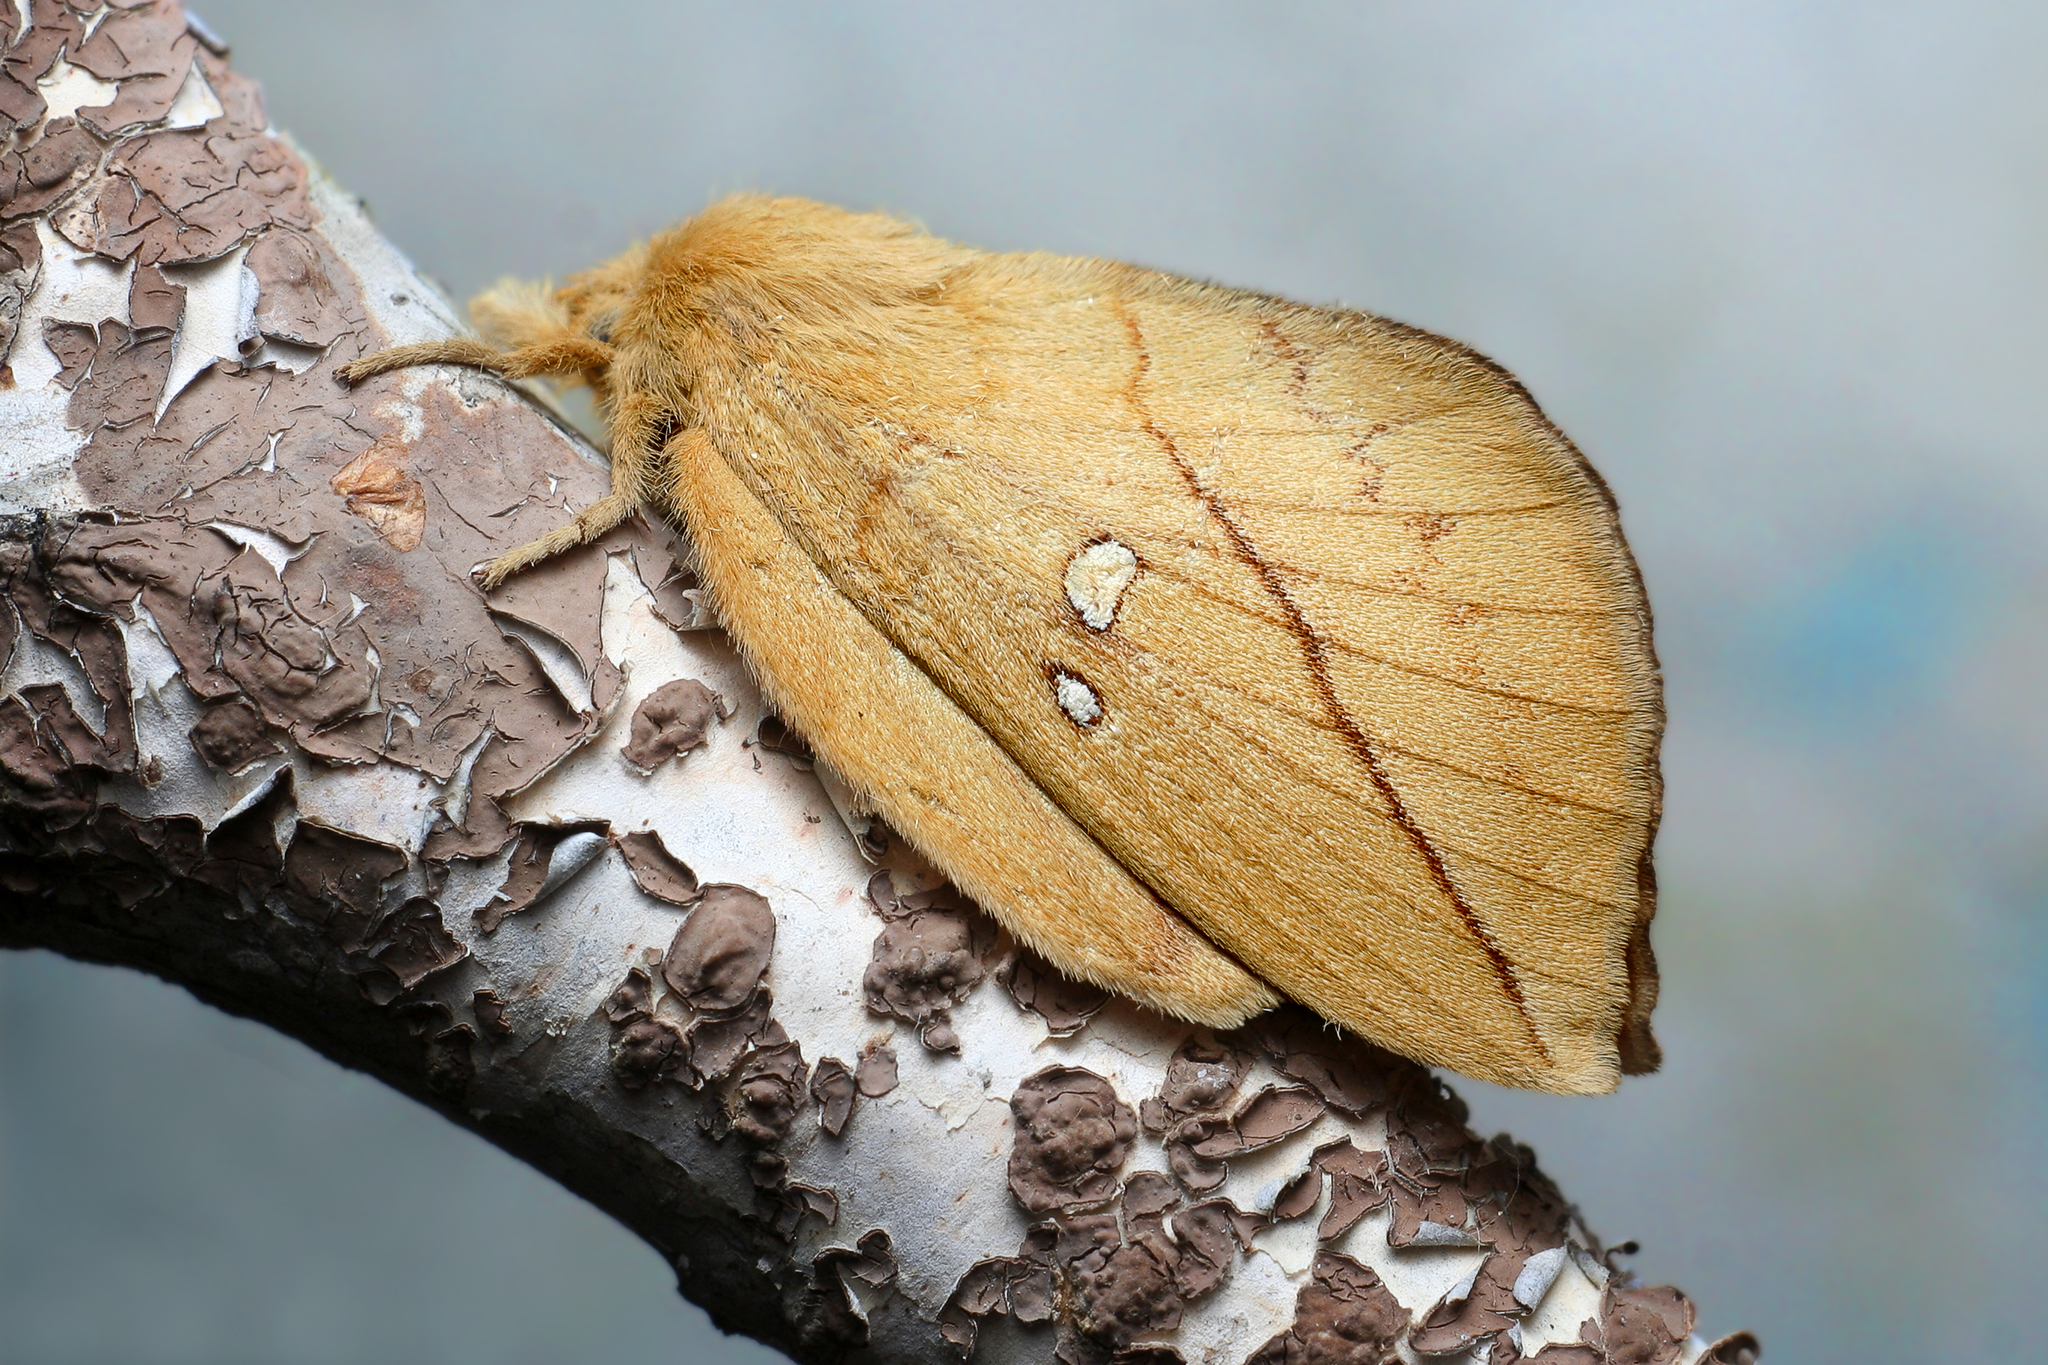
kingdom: Animalia
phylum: Arthropoda
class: Insecta
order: Lepidoptera
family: Lasiocampidae
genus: Euthrix
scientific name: Euthrix potatoria
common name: Drinker
